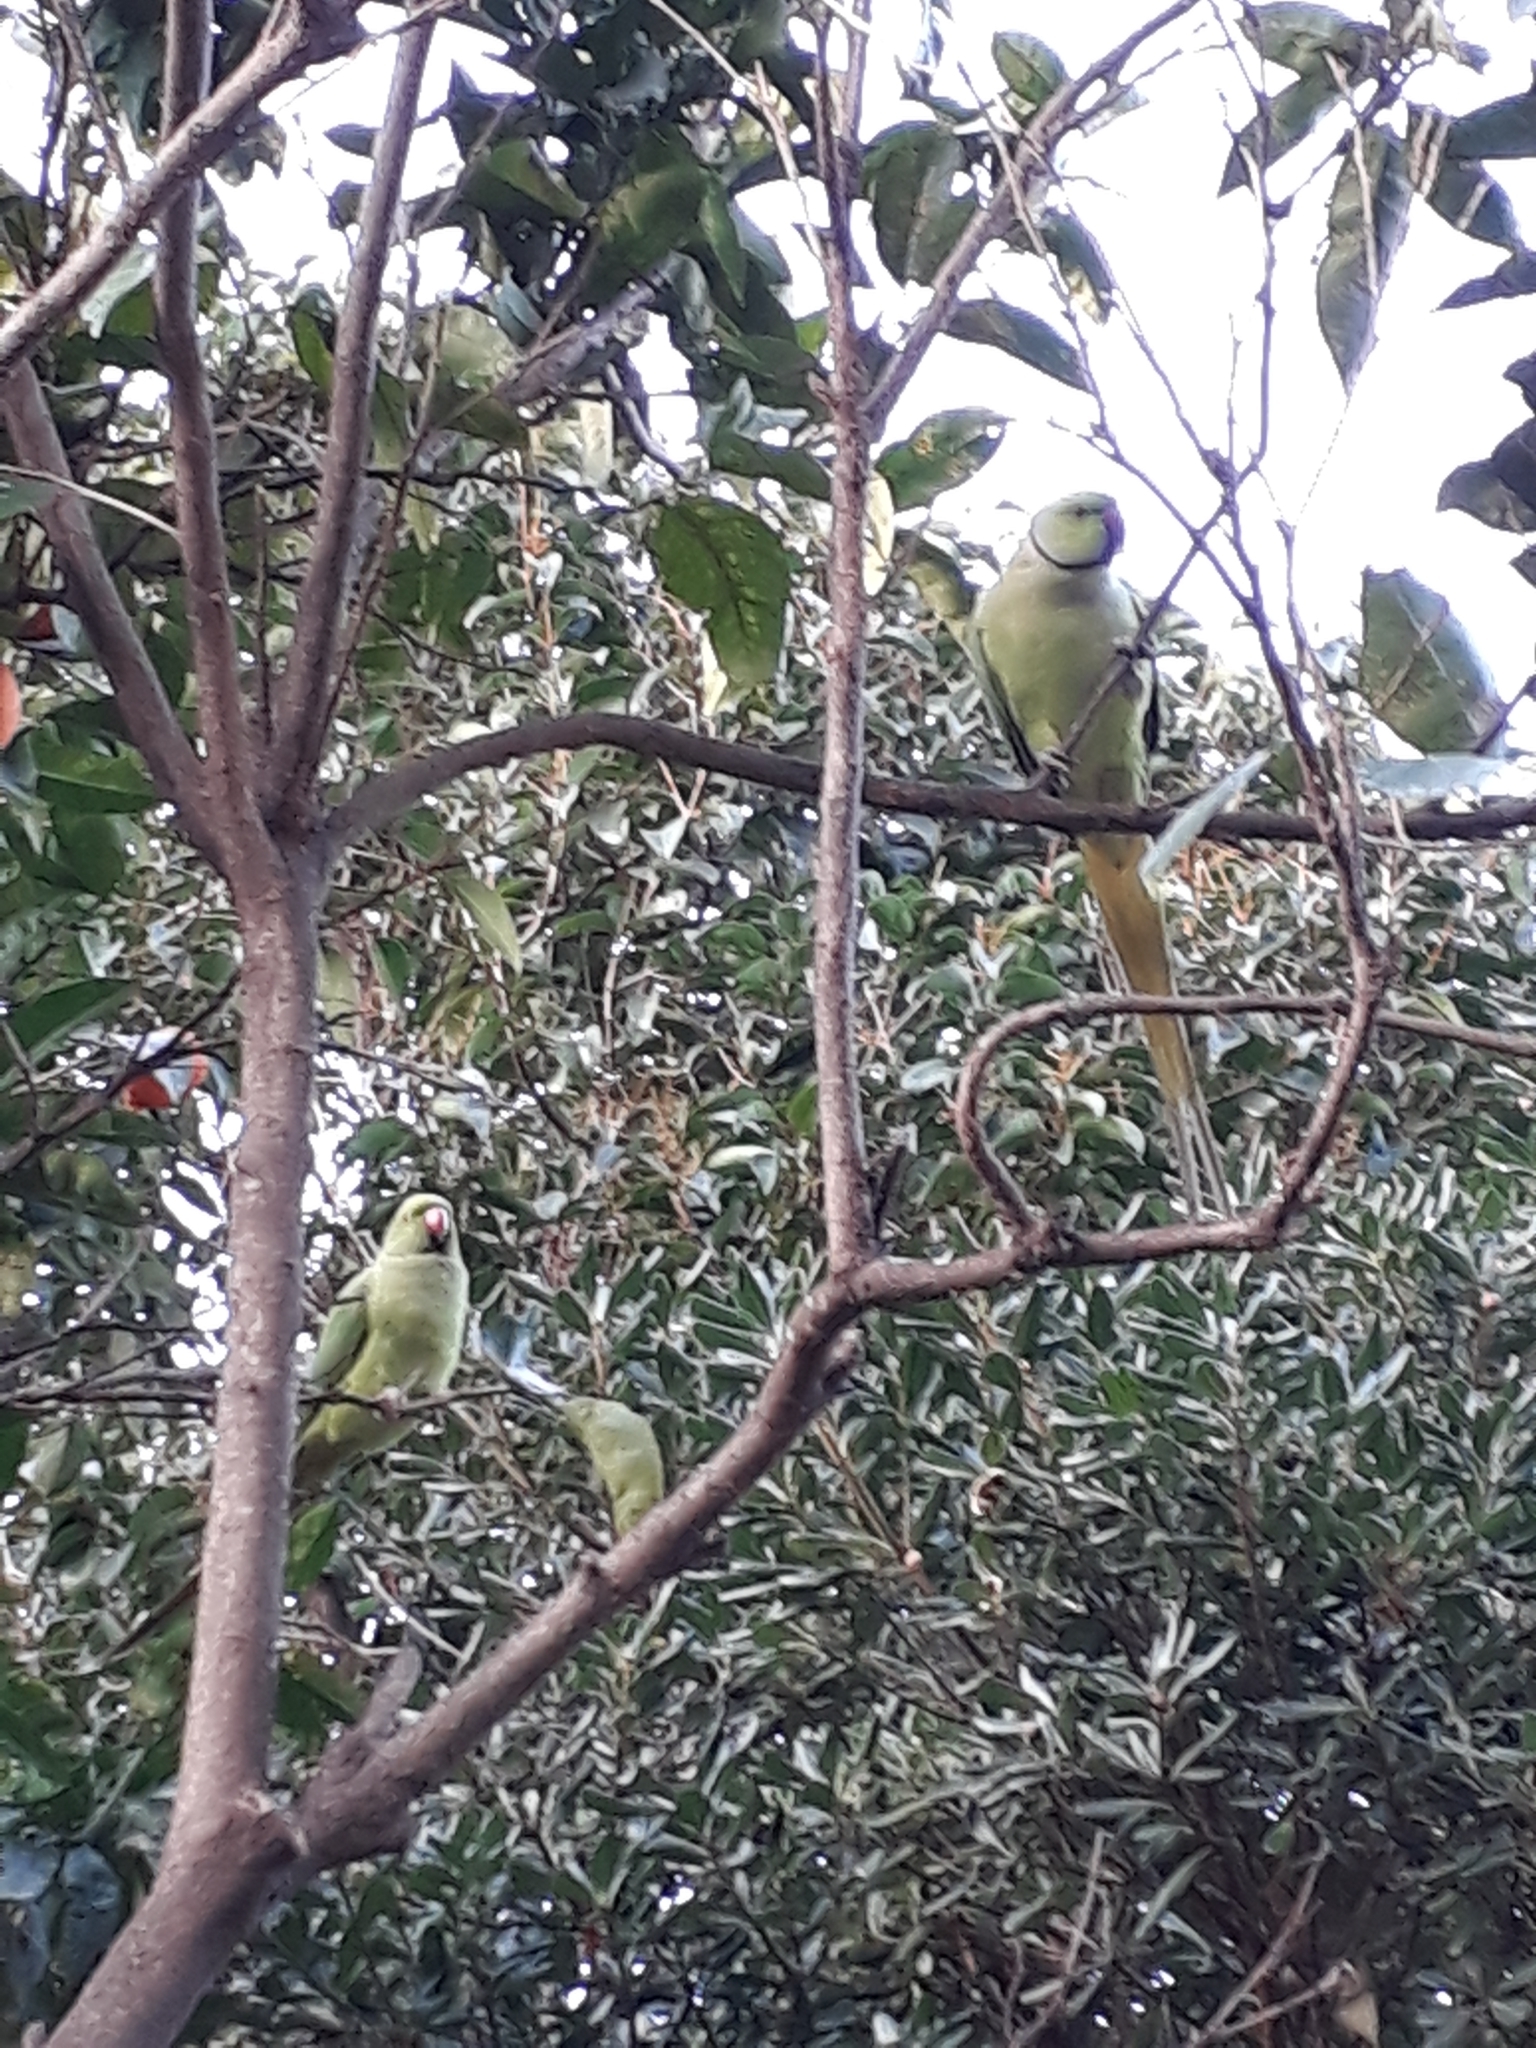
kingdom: Animalia
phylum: Chordata
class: Aves
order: Psittaciformes
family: Psittacidae
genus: Psittacula
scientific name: Psittacula krameri
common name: Rose-ringed parakeet
